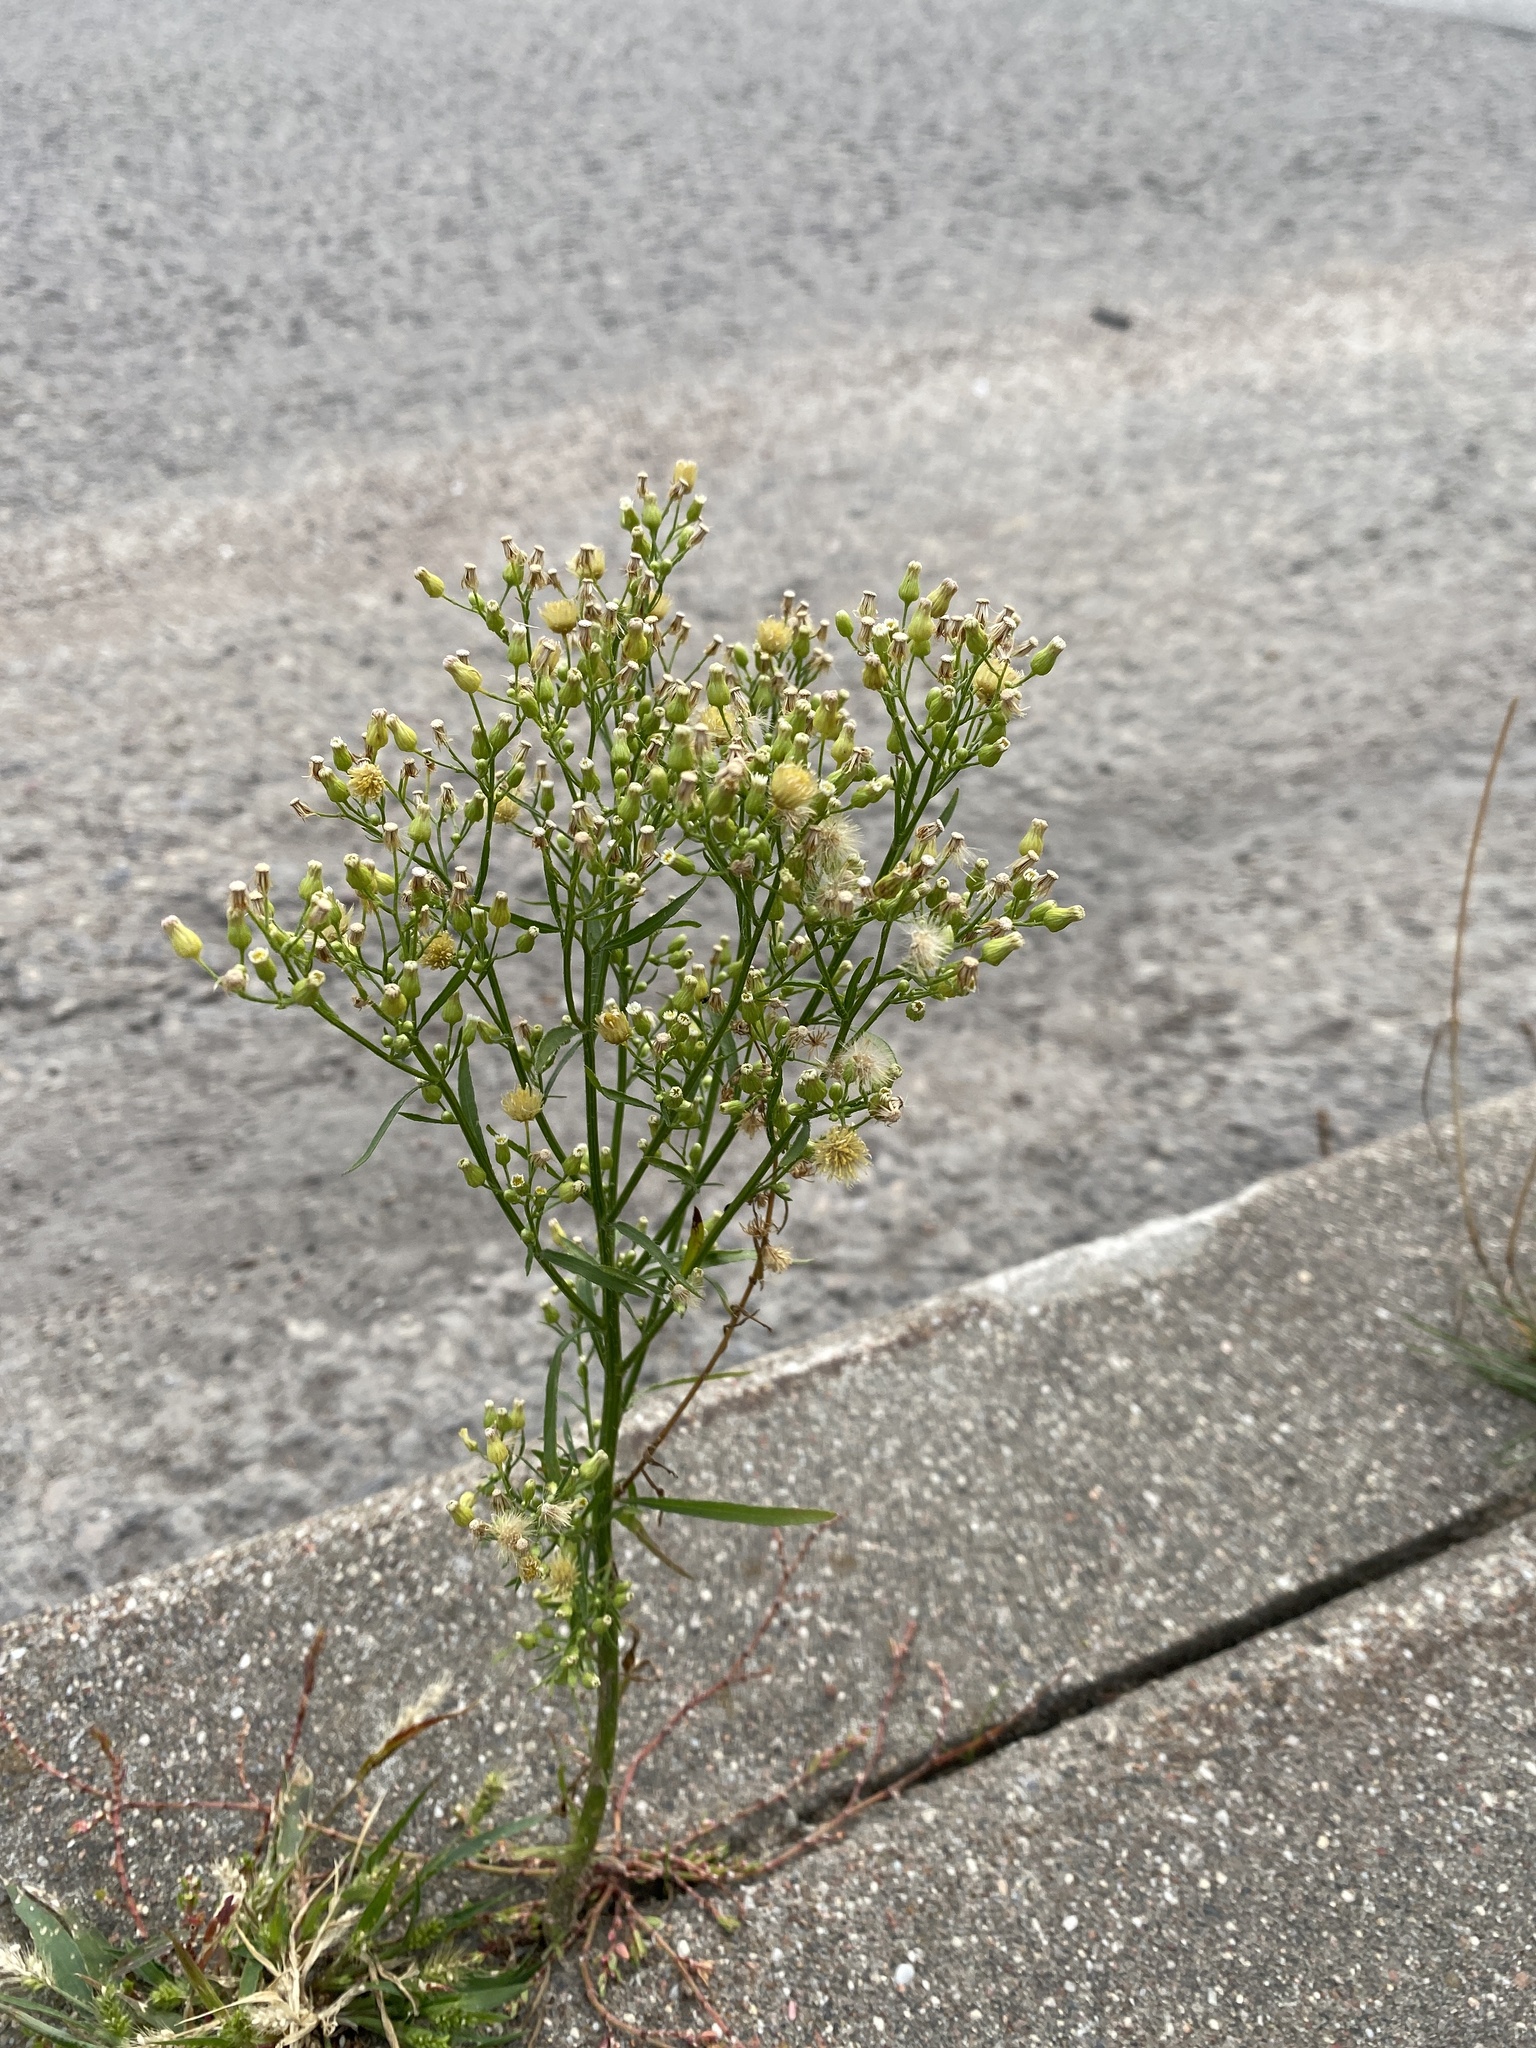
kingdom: Plantae
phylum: Tracheophyta
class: Magnoliopsida
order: Asterales
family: Asteraceae
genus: Erigeron
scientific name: Erigeron canadensis
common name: Canadian fleabane
